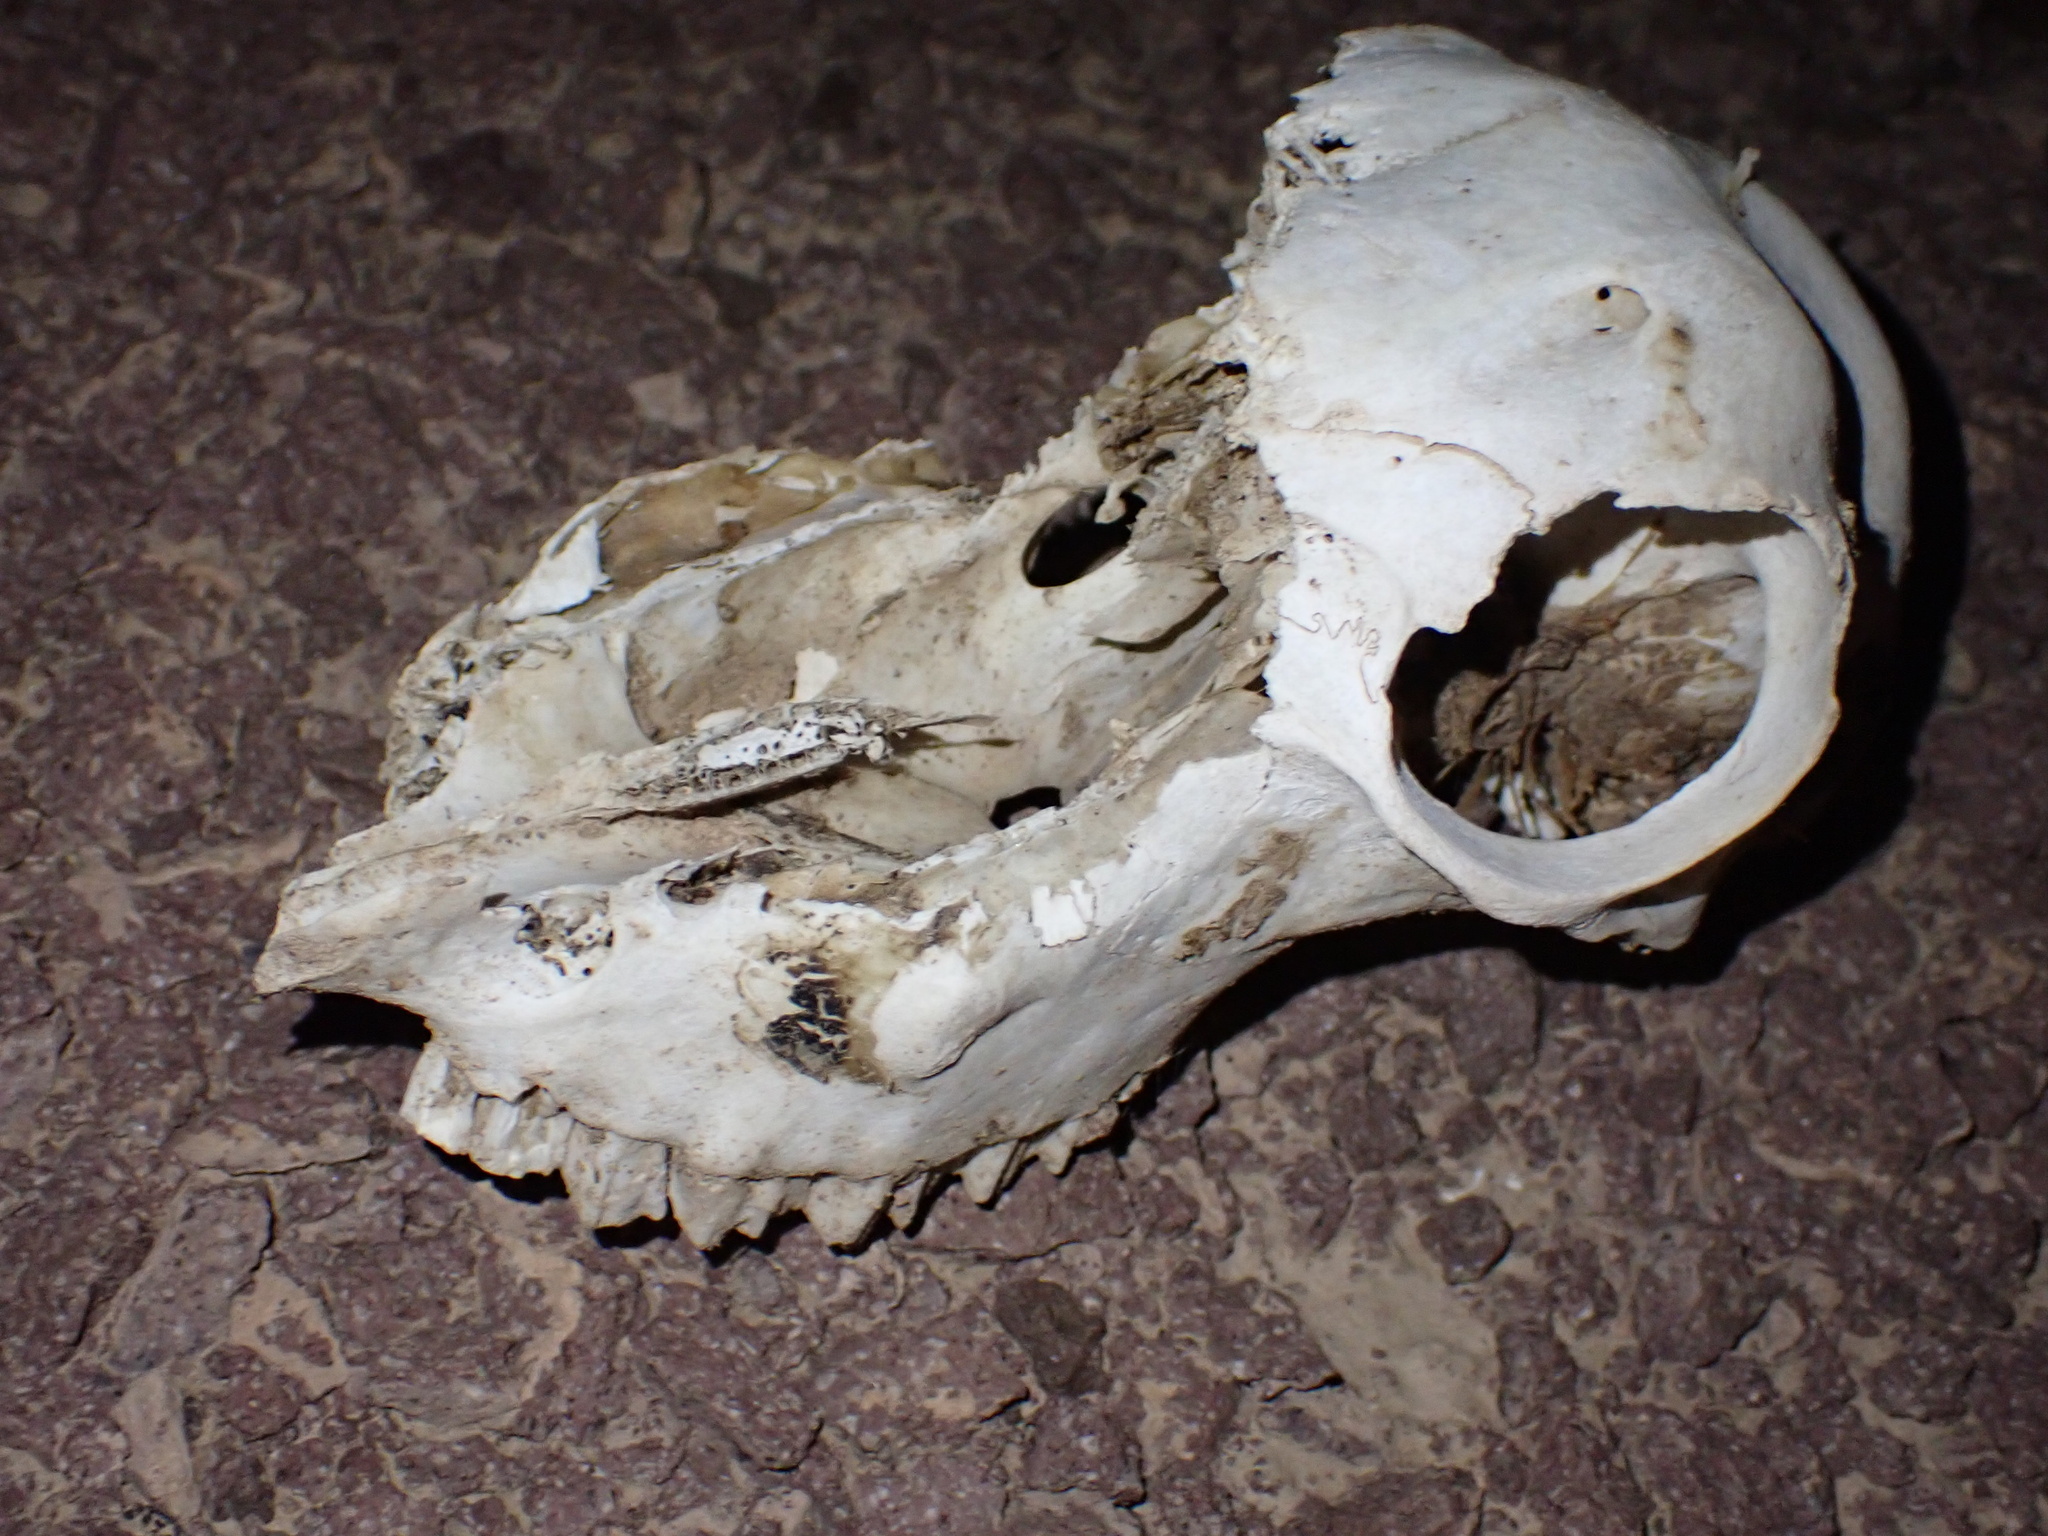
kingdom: Animalia
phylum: Chordata
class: Mammalia
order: Artiodactyla
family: Bovidae
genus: Ovis
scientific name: Ovis aries
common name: Domestic sheep
